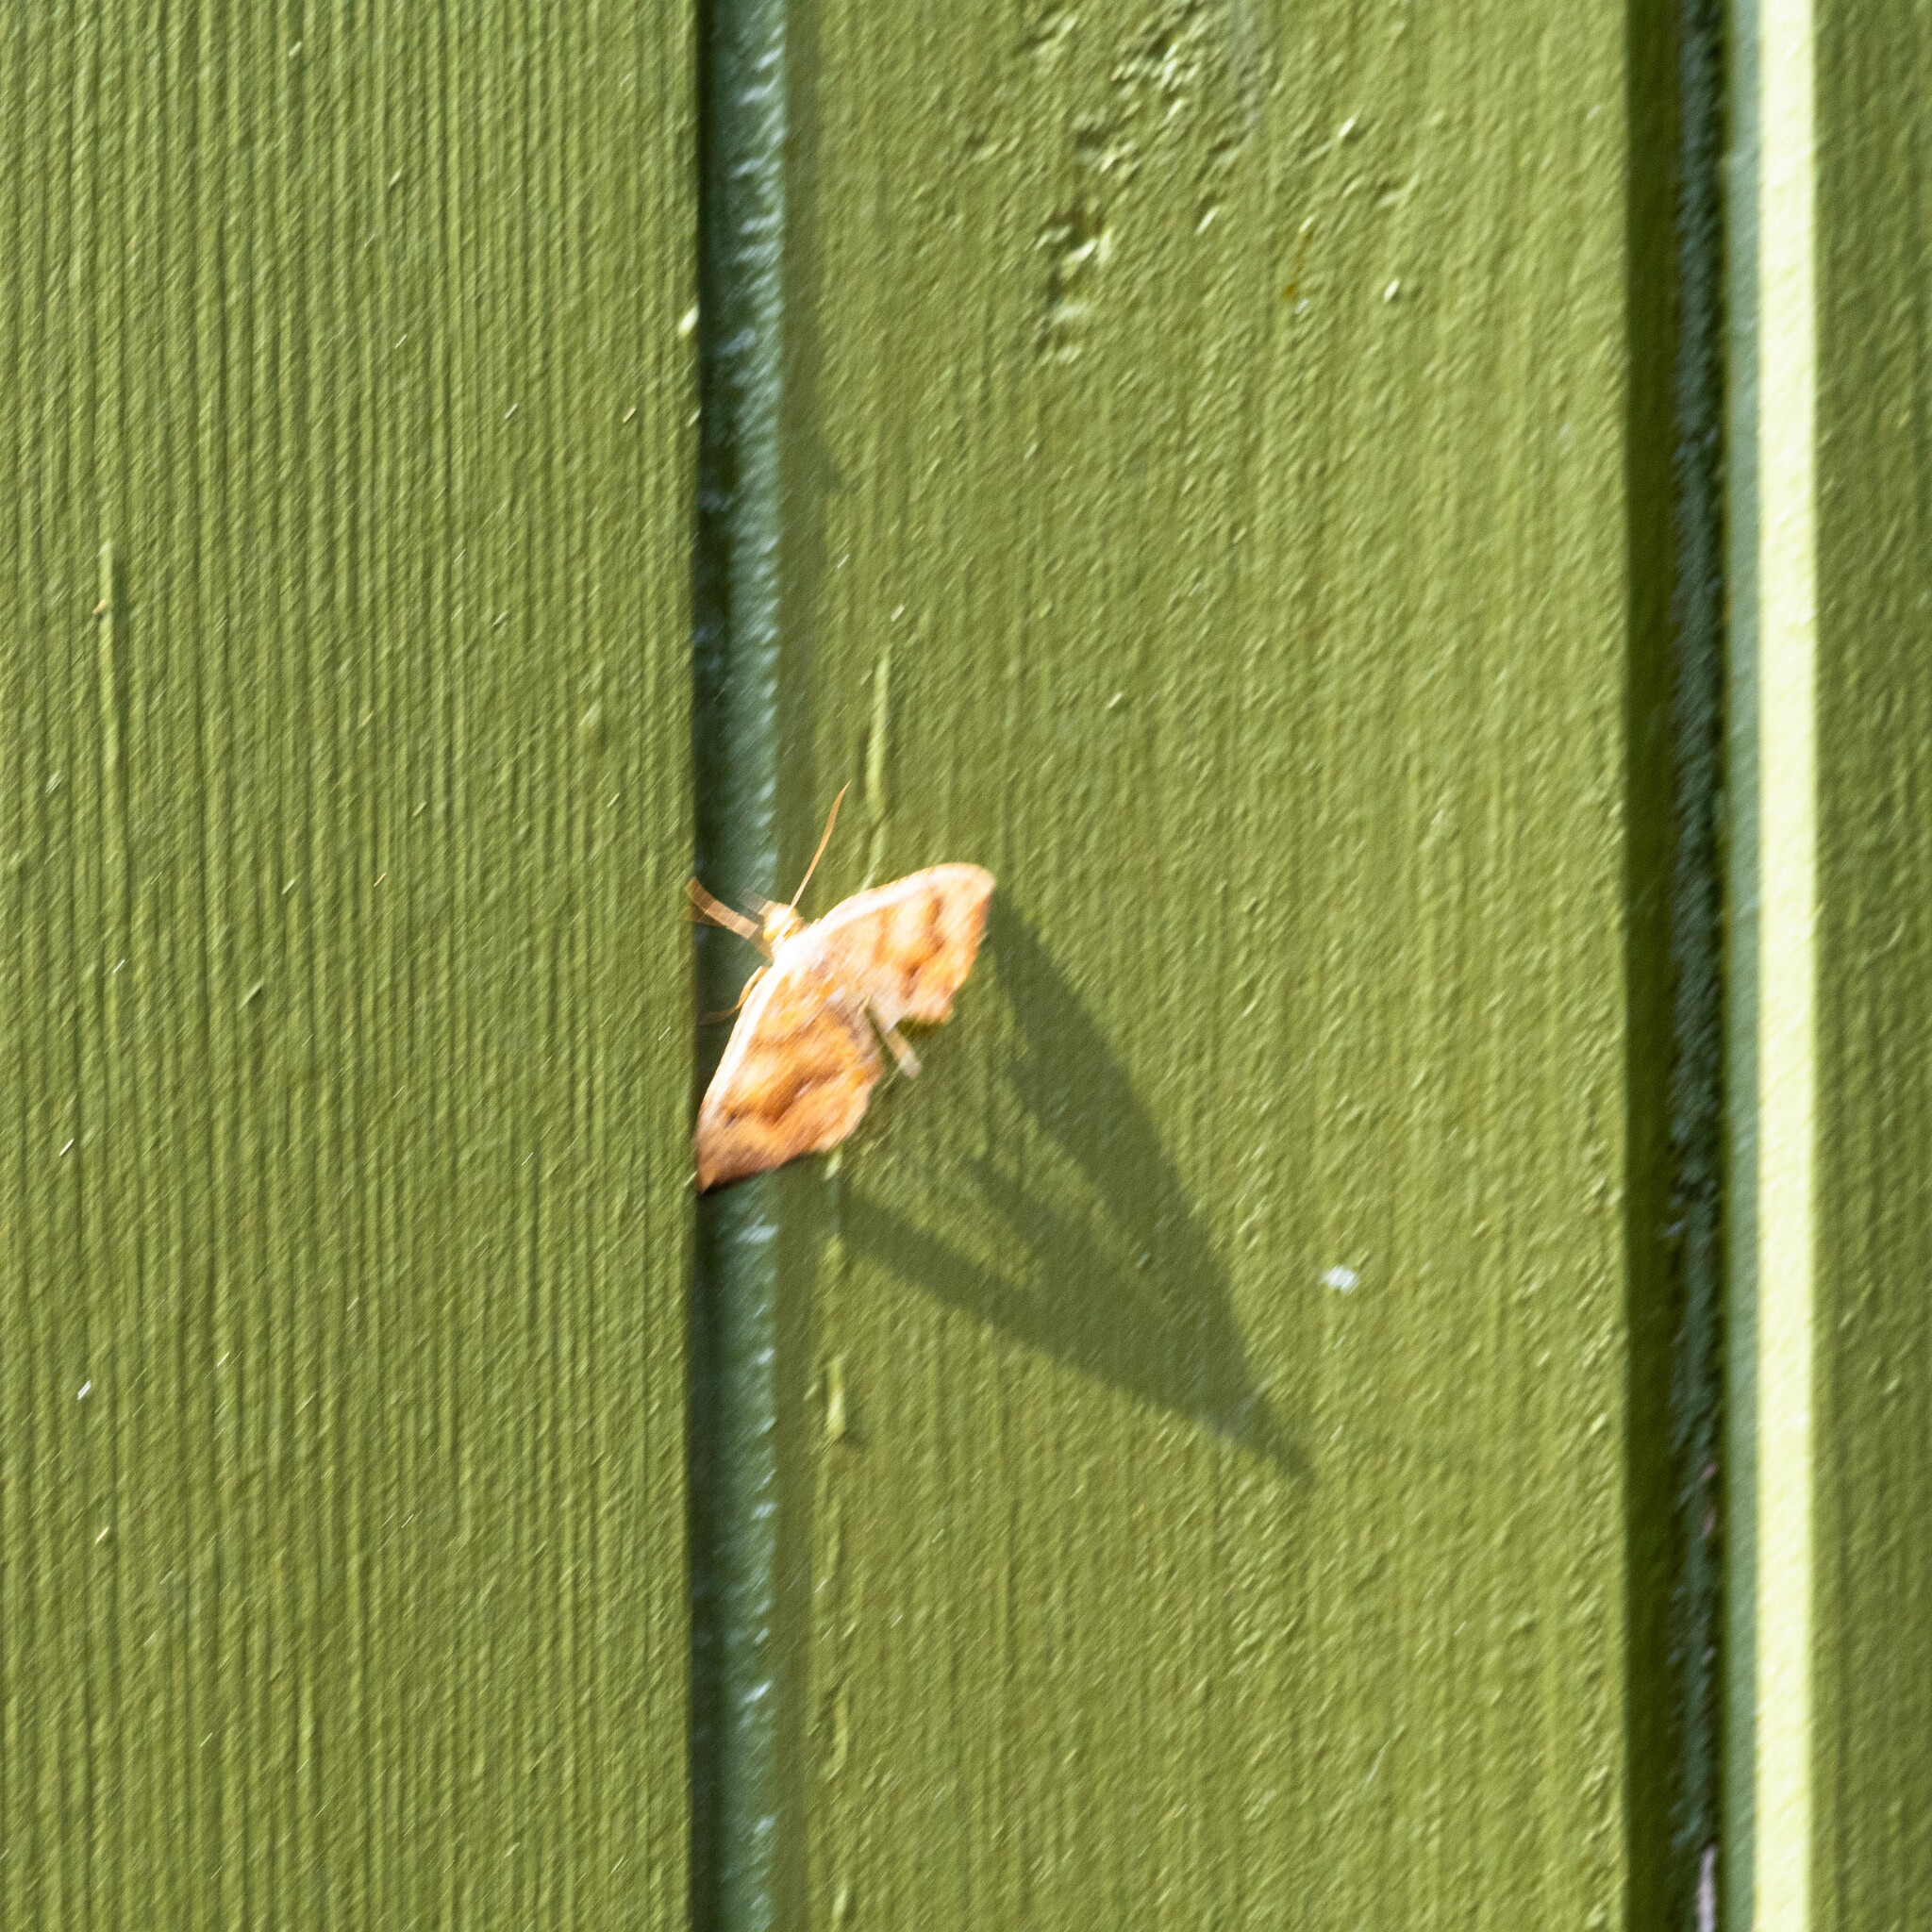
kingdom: Animalia
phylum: Arthropoda
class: Insecta
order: Lepidoptera
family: Geometridae
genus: Camptogramma
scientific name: Camptogramma bilineata
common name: Yellow shell
